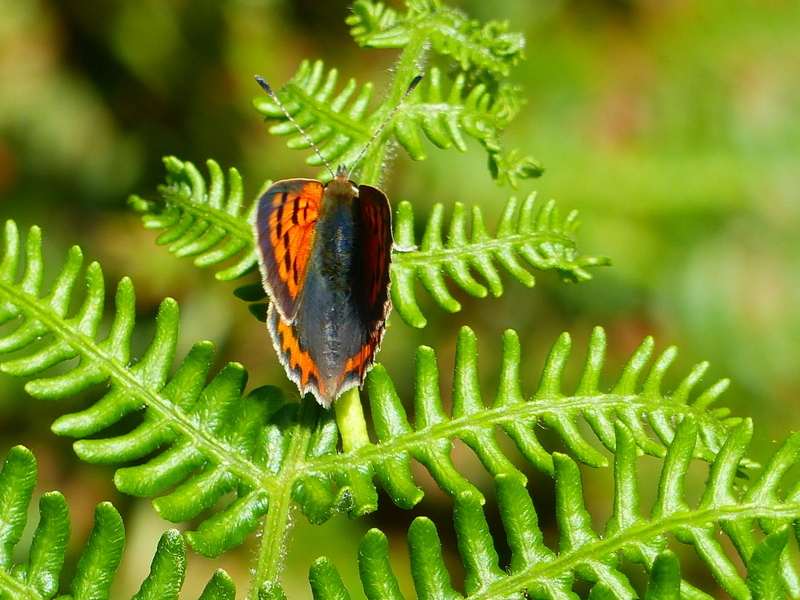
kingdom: Animalia
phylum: Arthropoda
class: Insecta
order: Lepidoptera
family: Lycaenidae
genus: Lycaena
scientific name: Lycaena phlaeas
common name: Small copper
